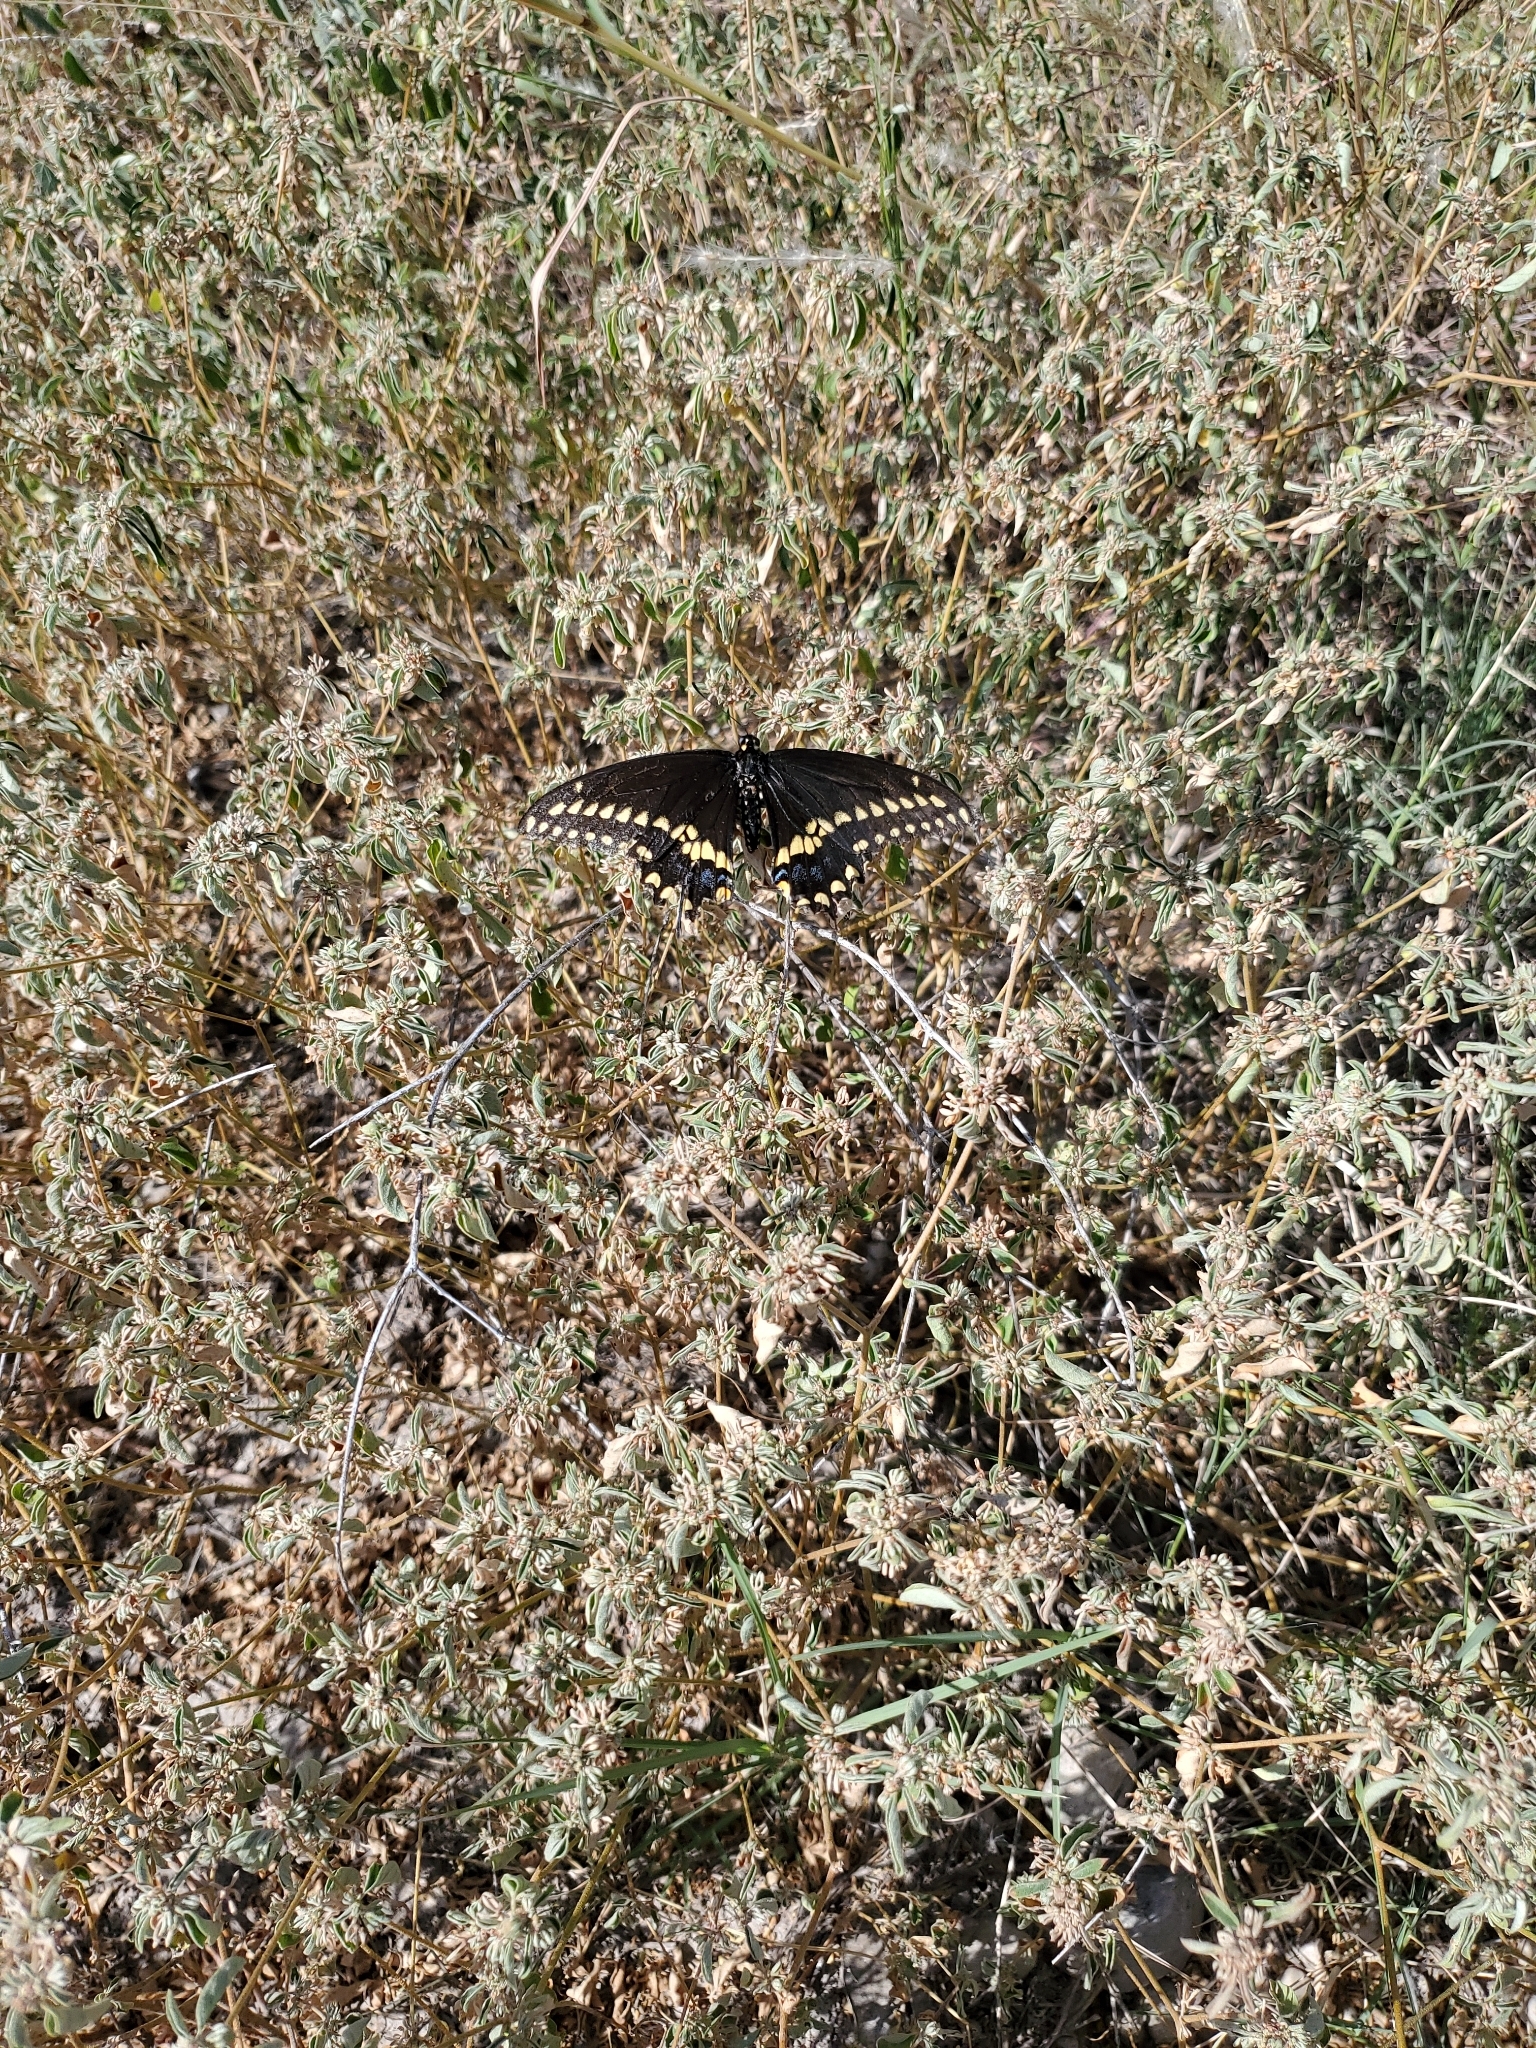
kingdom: Animalia
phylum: Arthropoda
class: Insecta
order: Lepidoptera
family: Papilionidae
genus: Papilio
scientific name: Papilio polyxenes
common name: Black swallowtail
